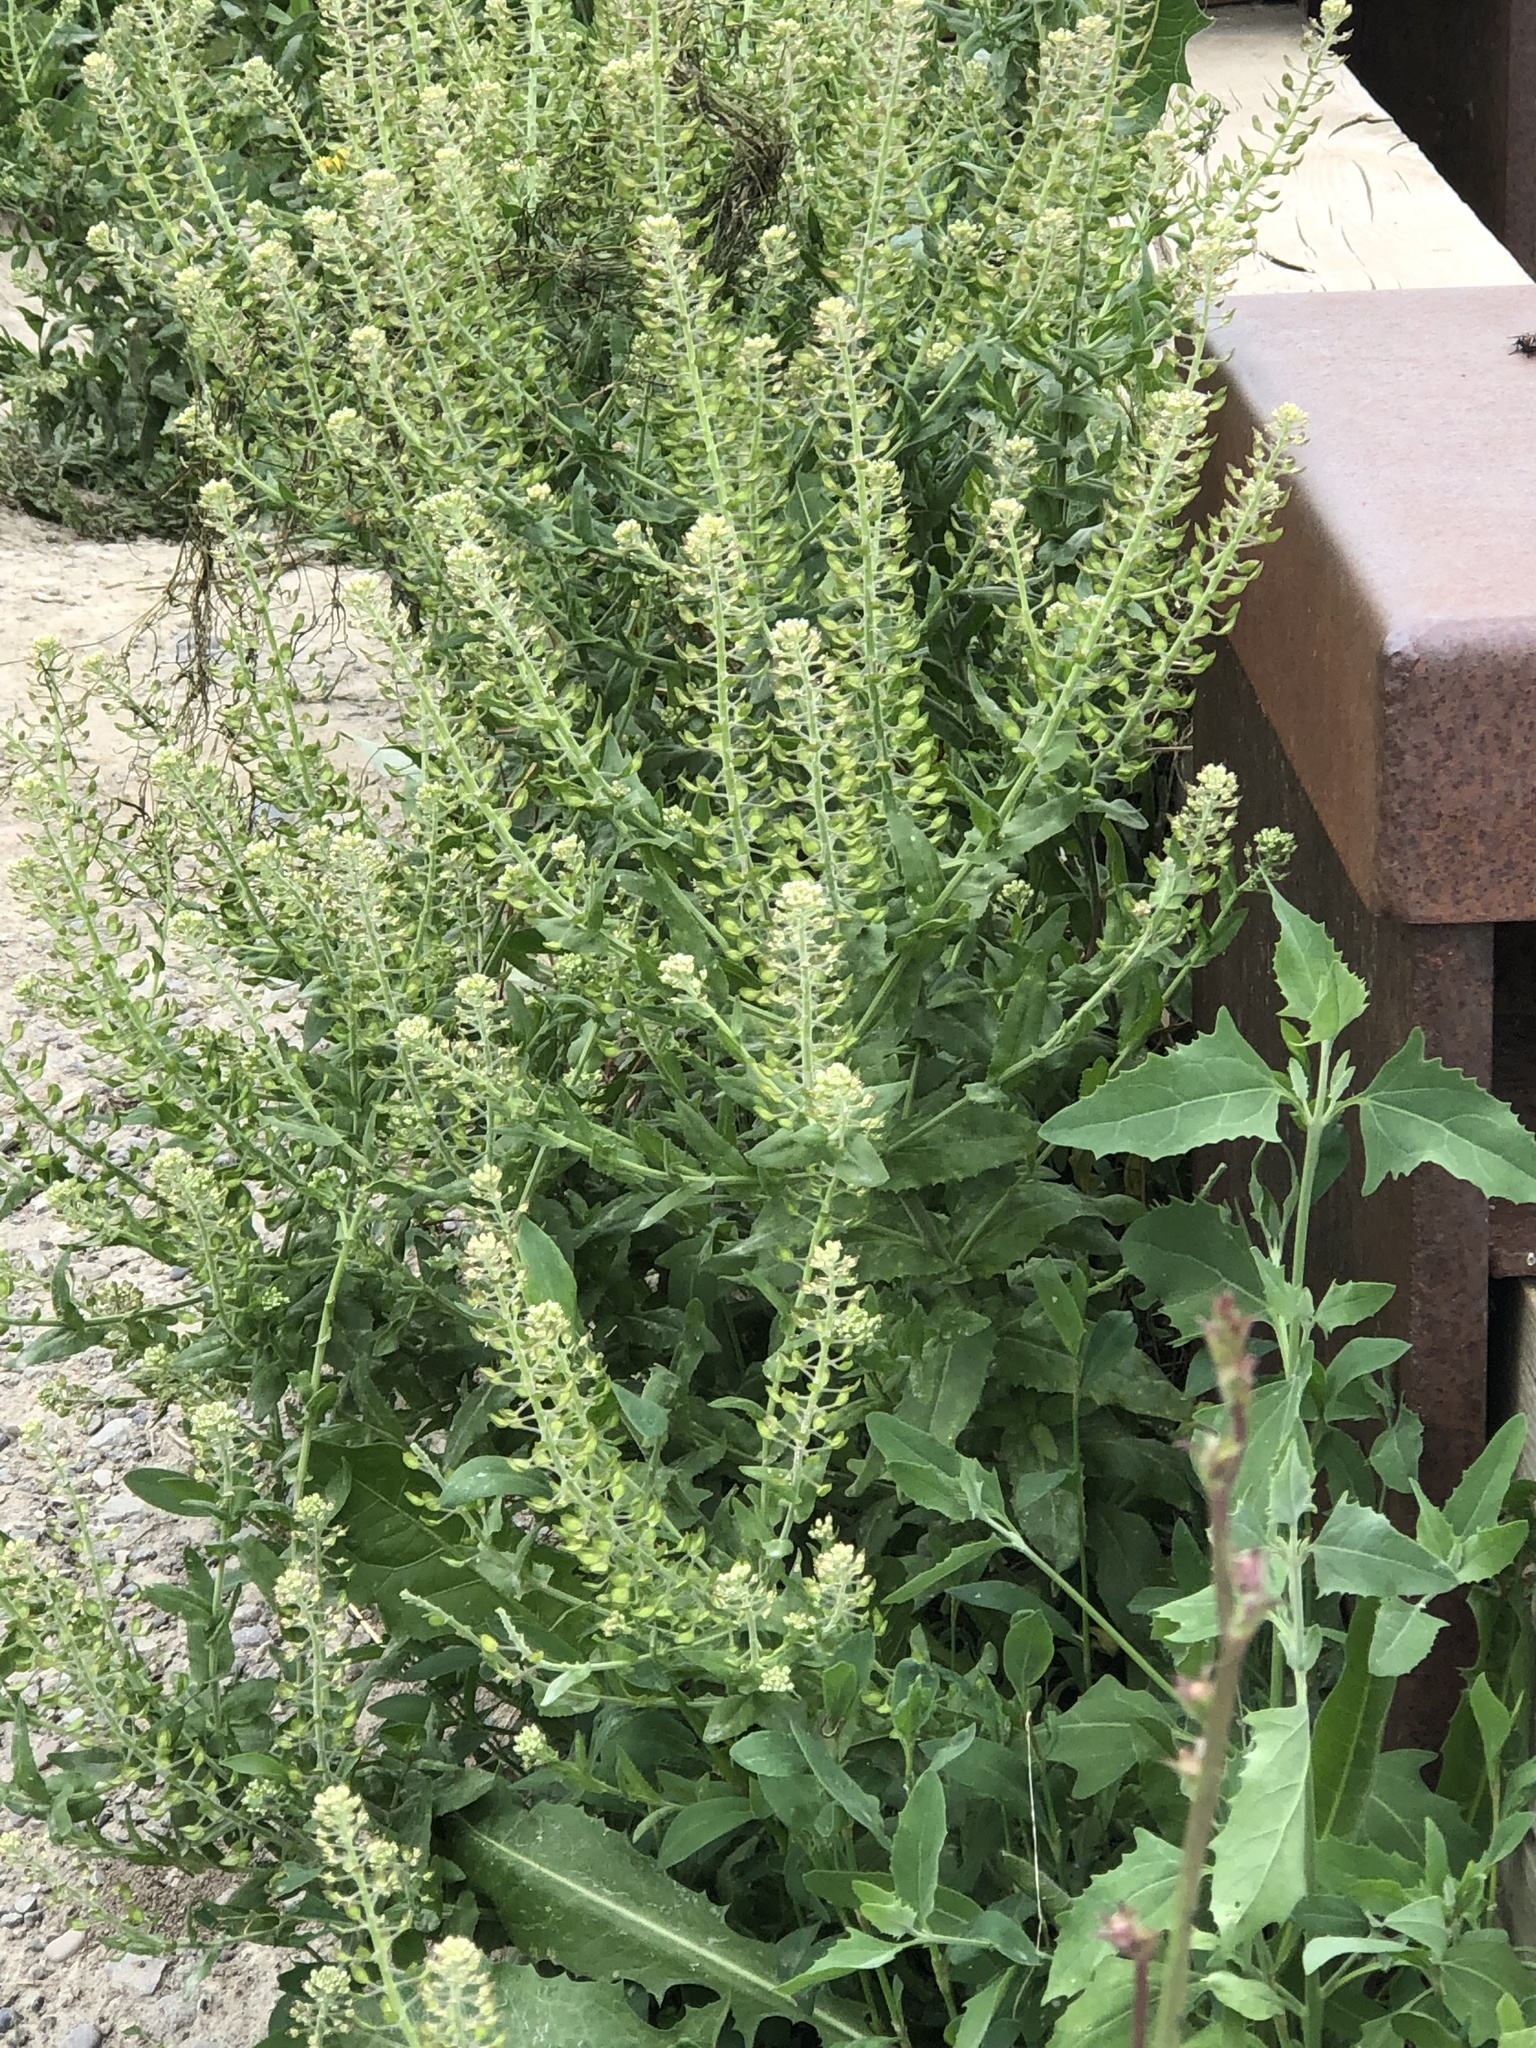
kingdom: Plantae
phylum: Tracheophyta
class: Magnoliopsida
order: Brassicales
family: Brassicaceae
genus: Lepidium
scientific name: Lepidium campestre
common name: Field pepperwort
